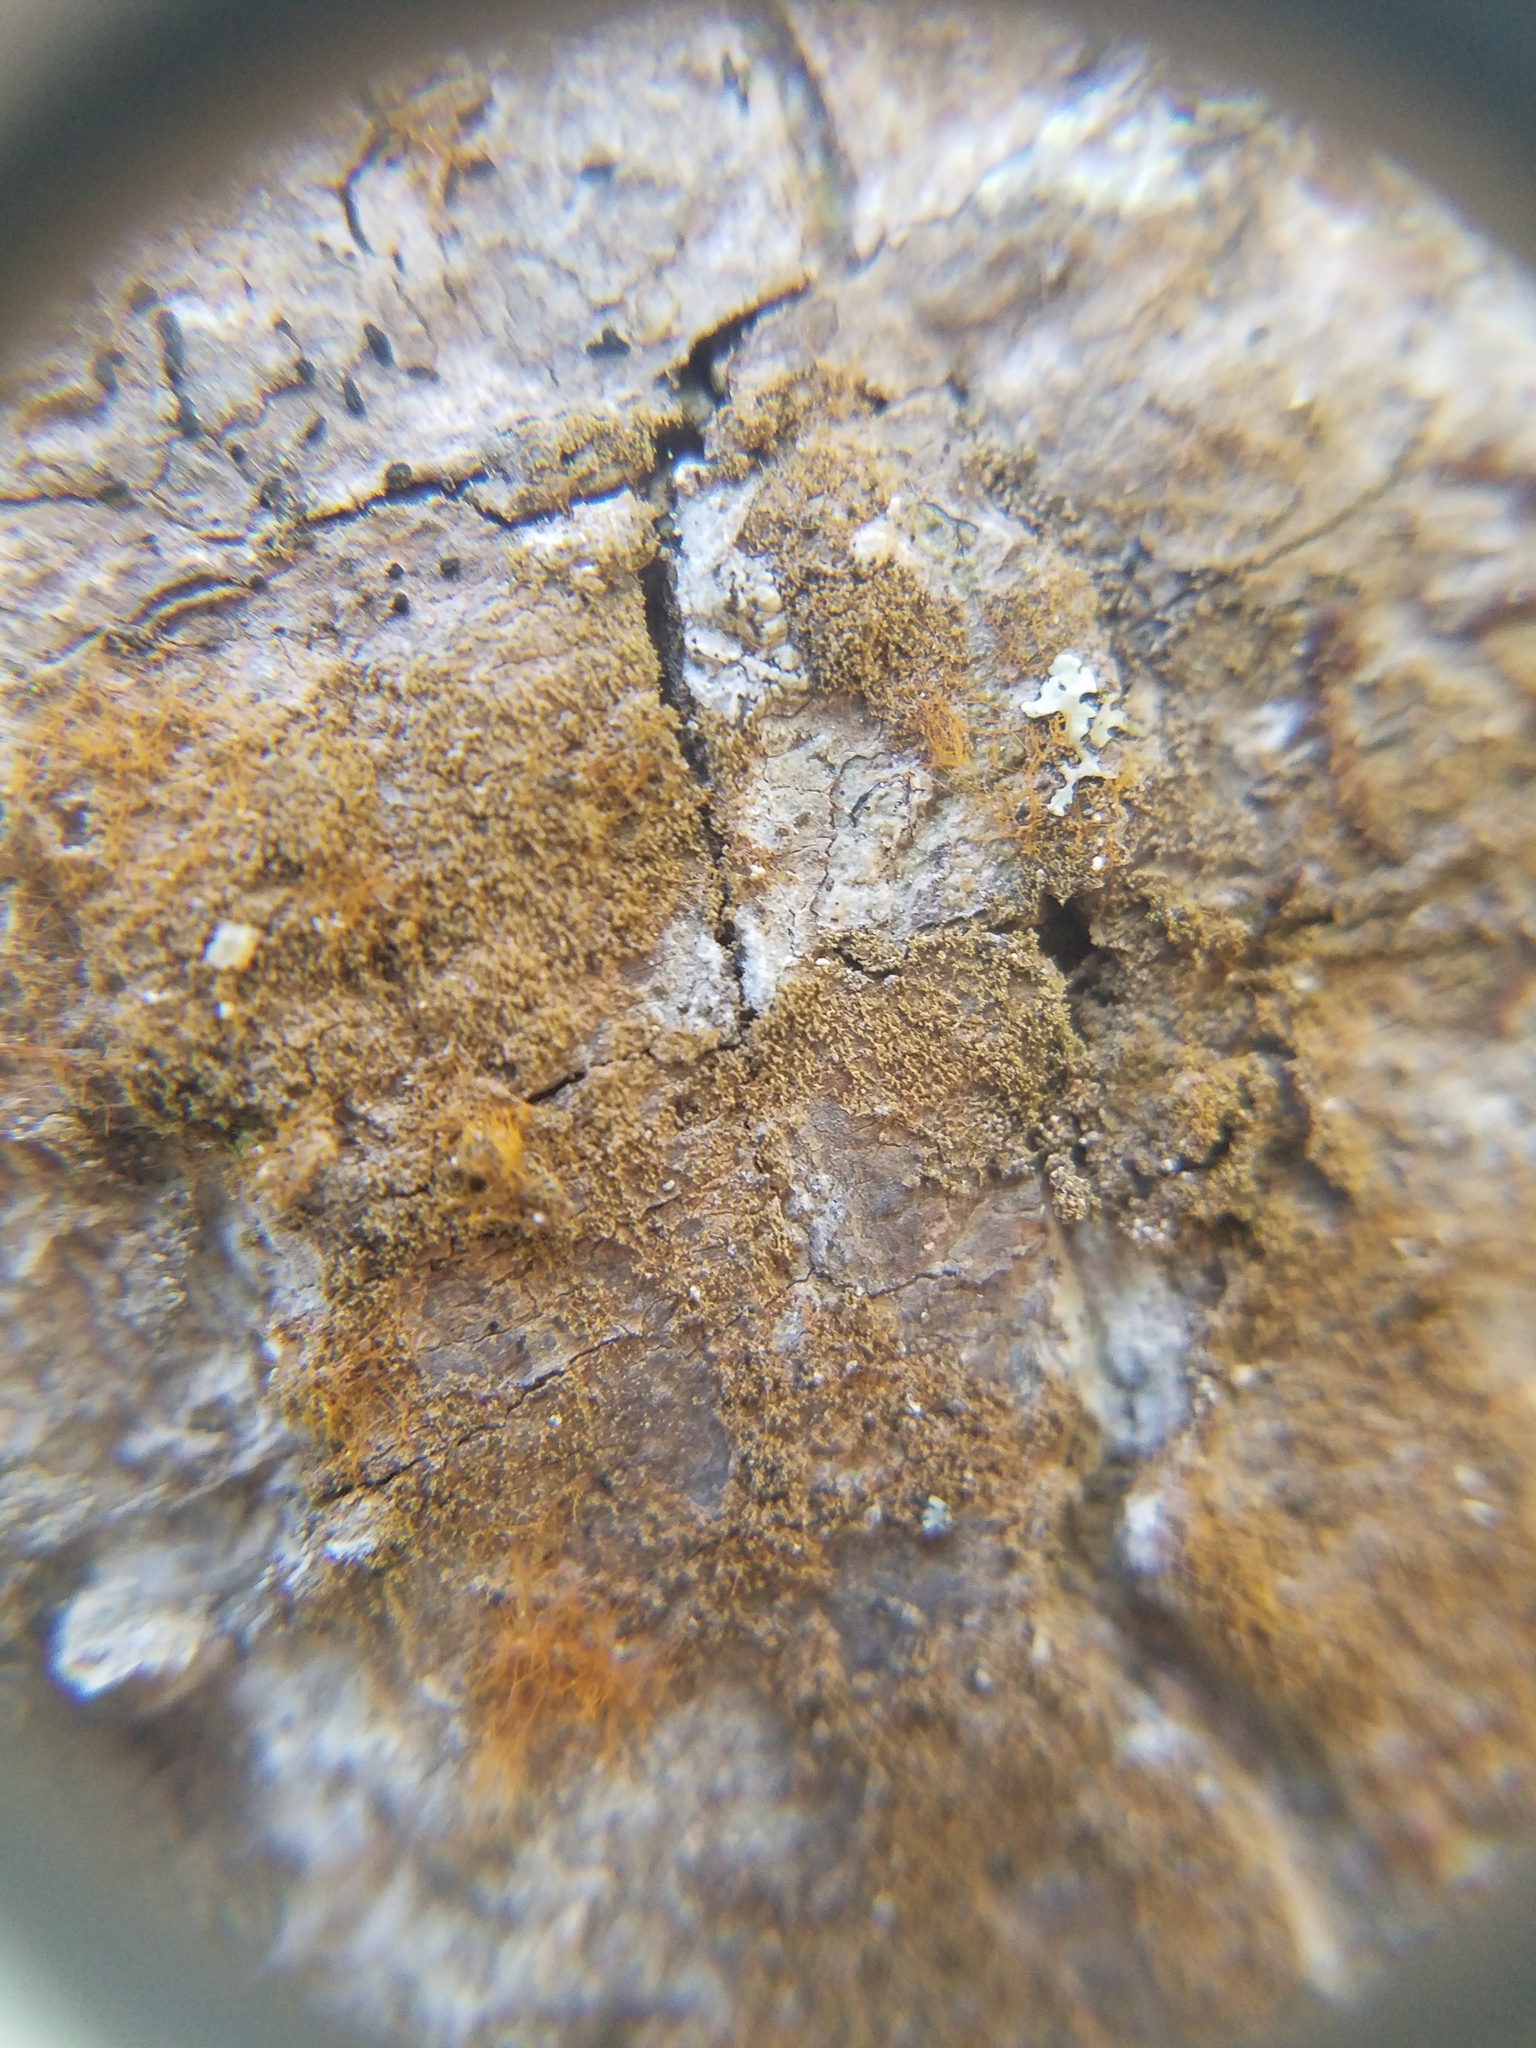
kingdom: Fungi
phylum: Ascomycota
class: Lecanoromycetes
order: Ostropales
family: Porinaceae
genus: Porina
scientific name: Porina scabrida
